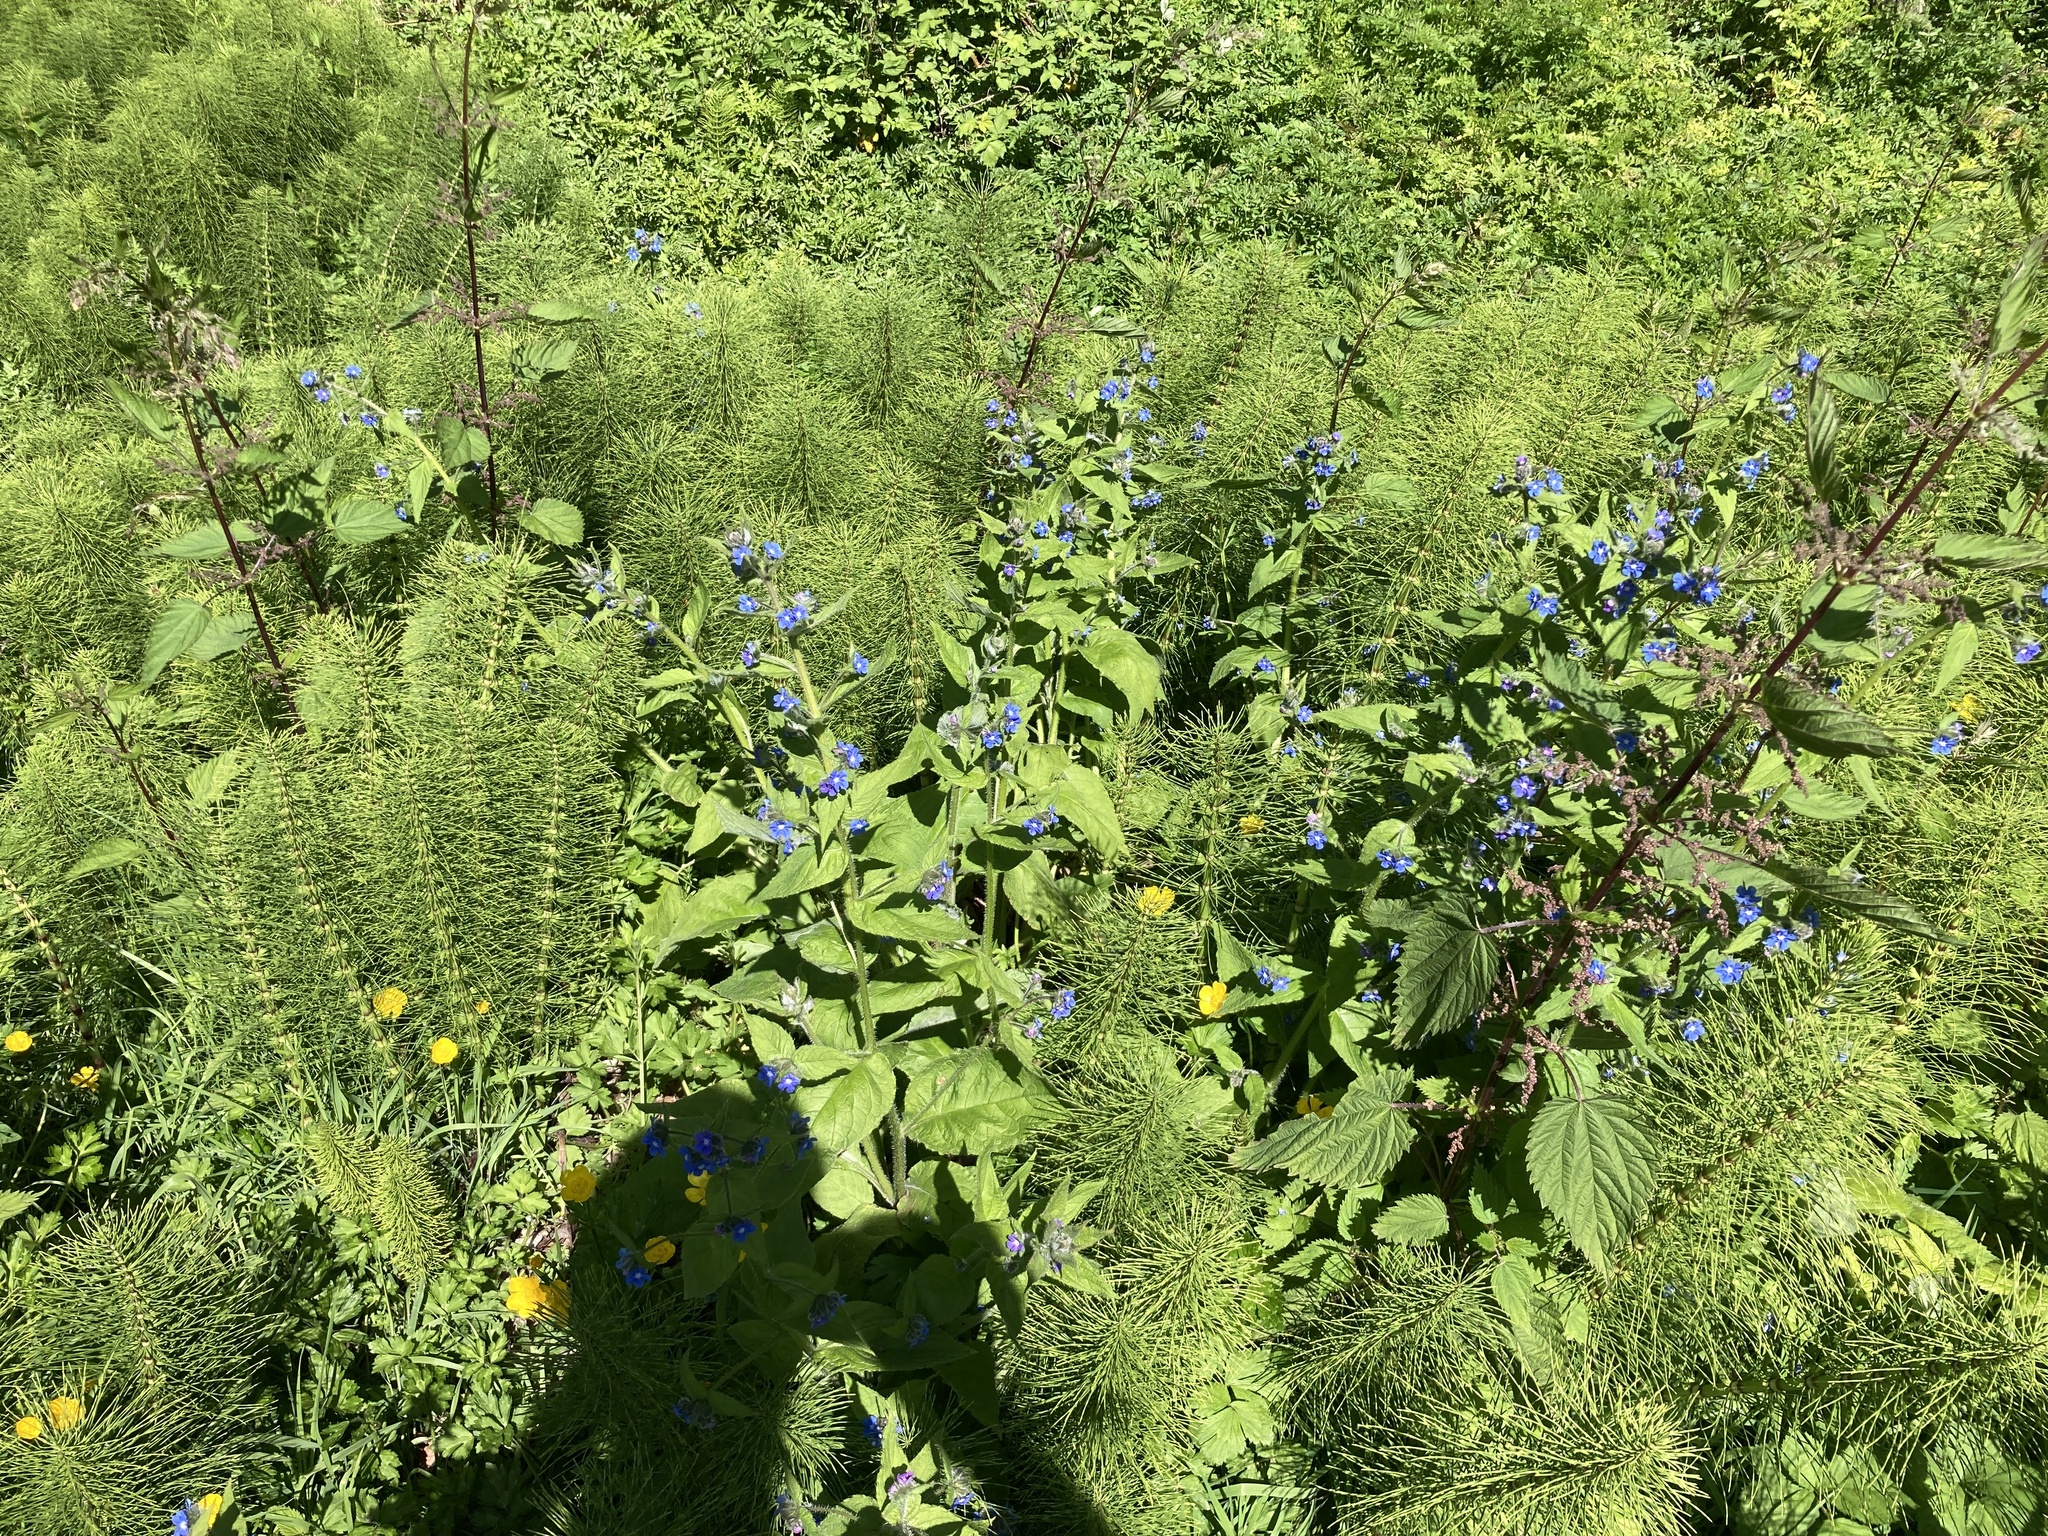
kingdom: Plantae
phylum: Tracheophyta
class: Magnoliopsida
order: Boraginales
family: Boraginaceae
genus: Pentaglottis
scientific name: Pentaglottis sempervirens
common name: Green alkanet
